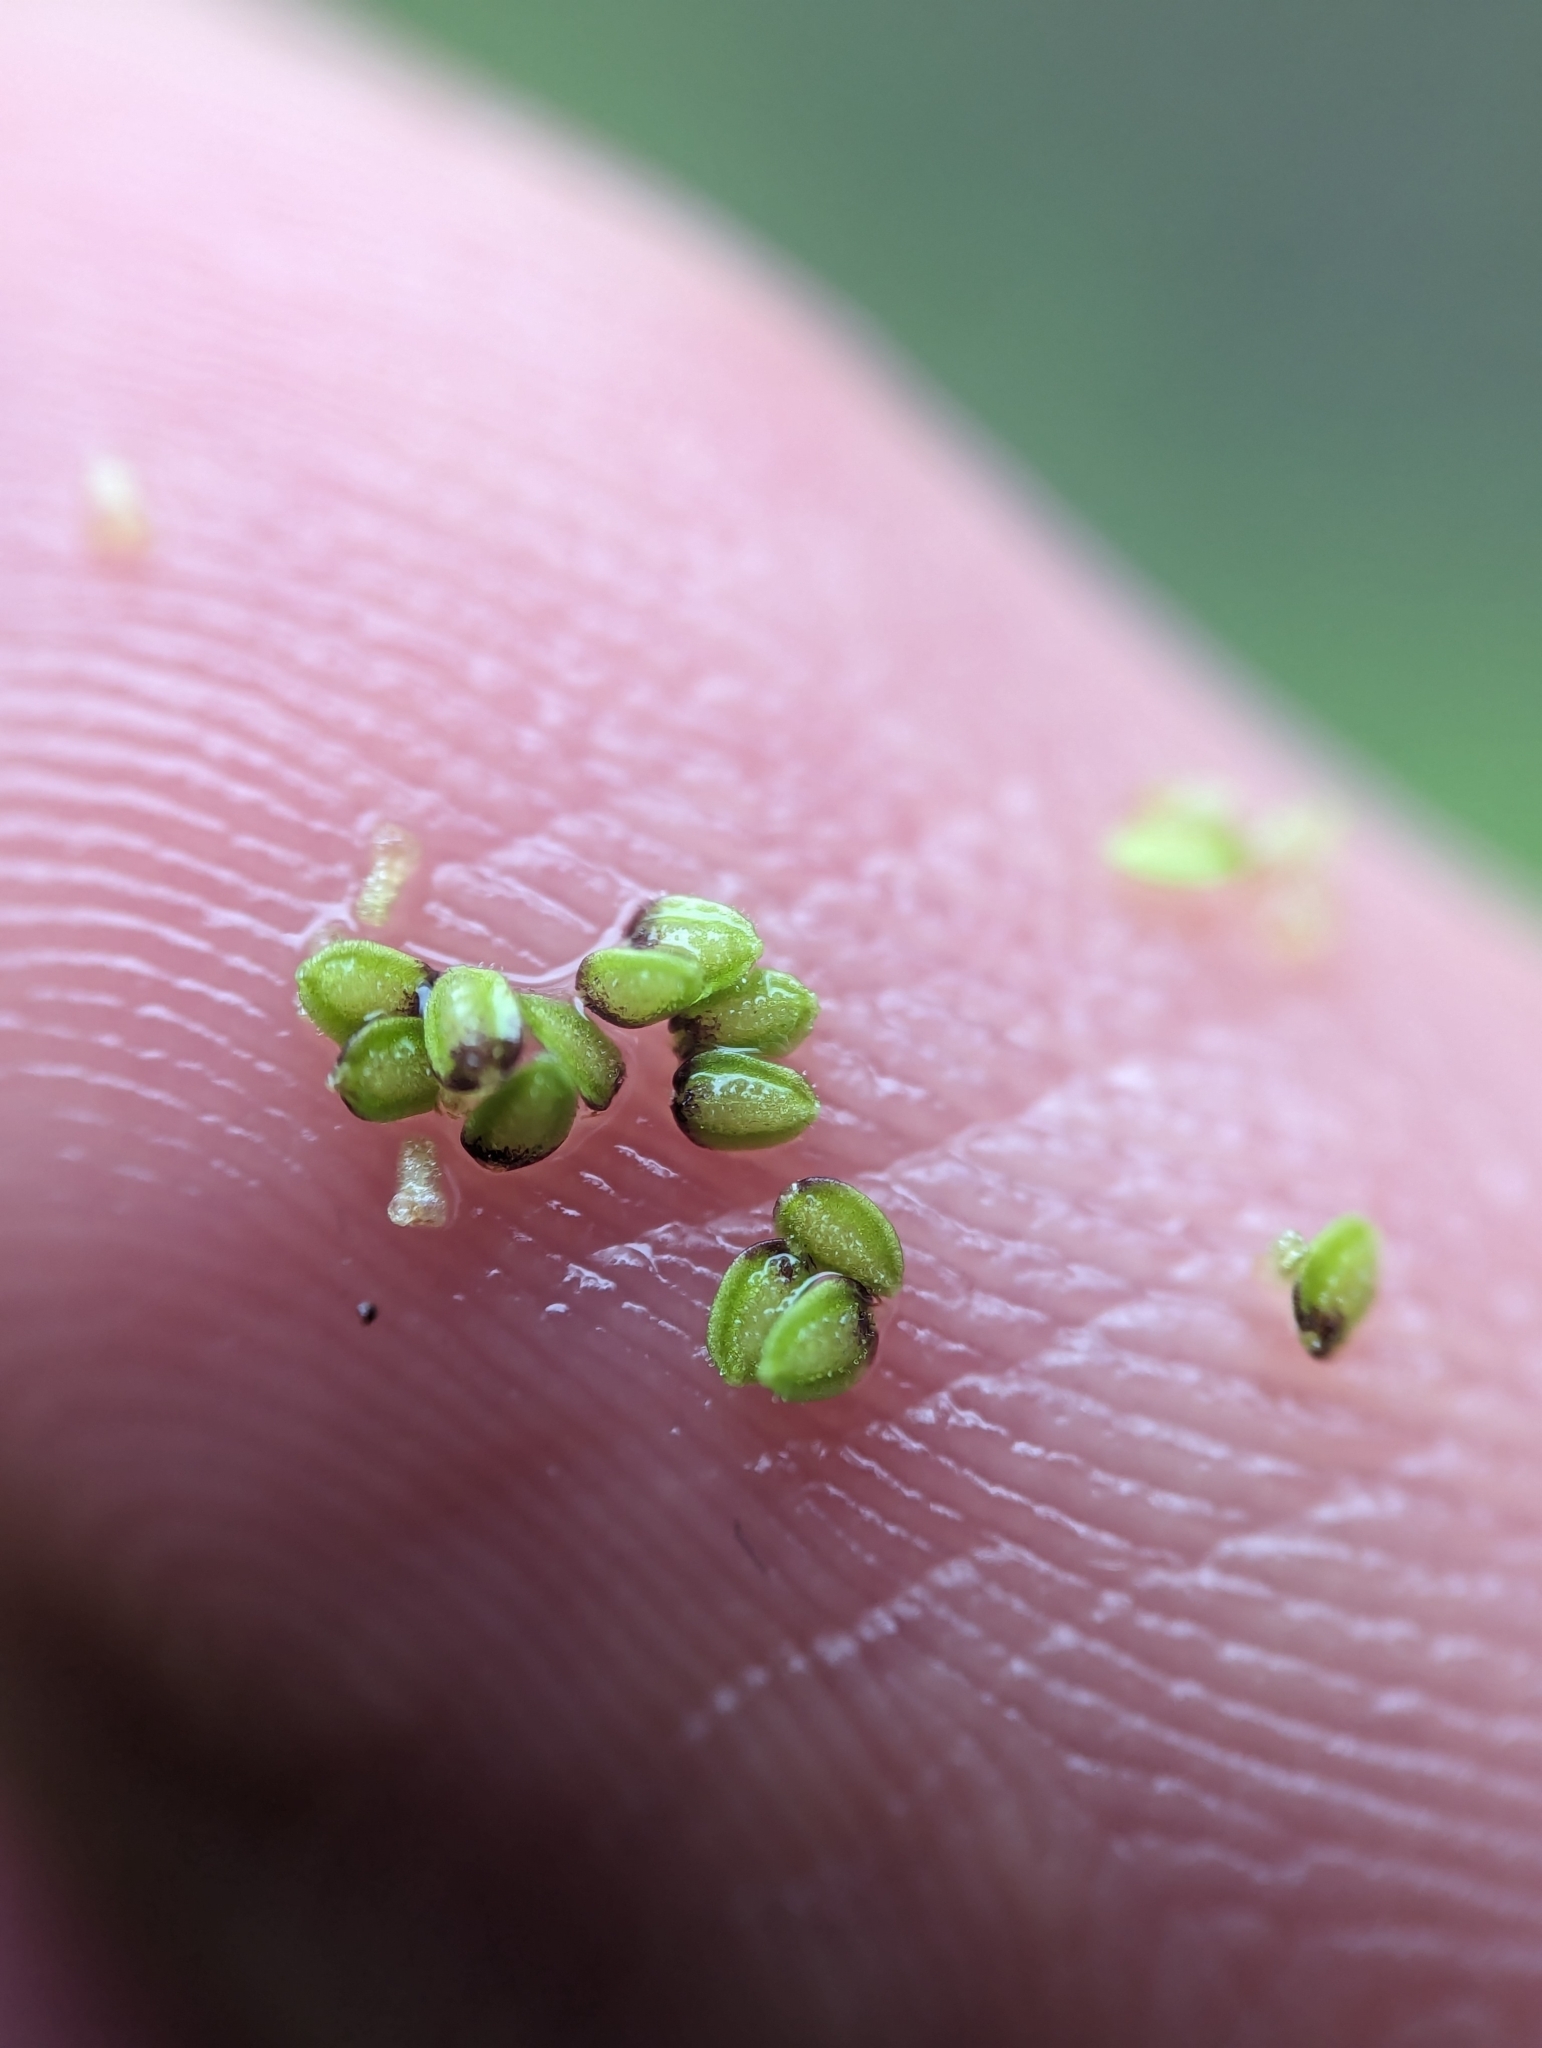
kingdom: Plantae
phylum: Tracheophyta
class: Magnoliopsida
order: Asterales
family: Asteraceae
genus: Cotula
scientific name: Cotula australis
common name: Australian waterbuttons
